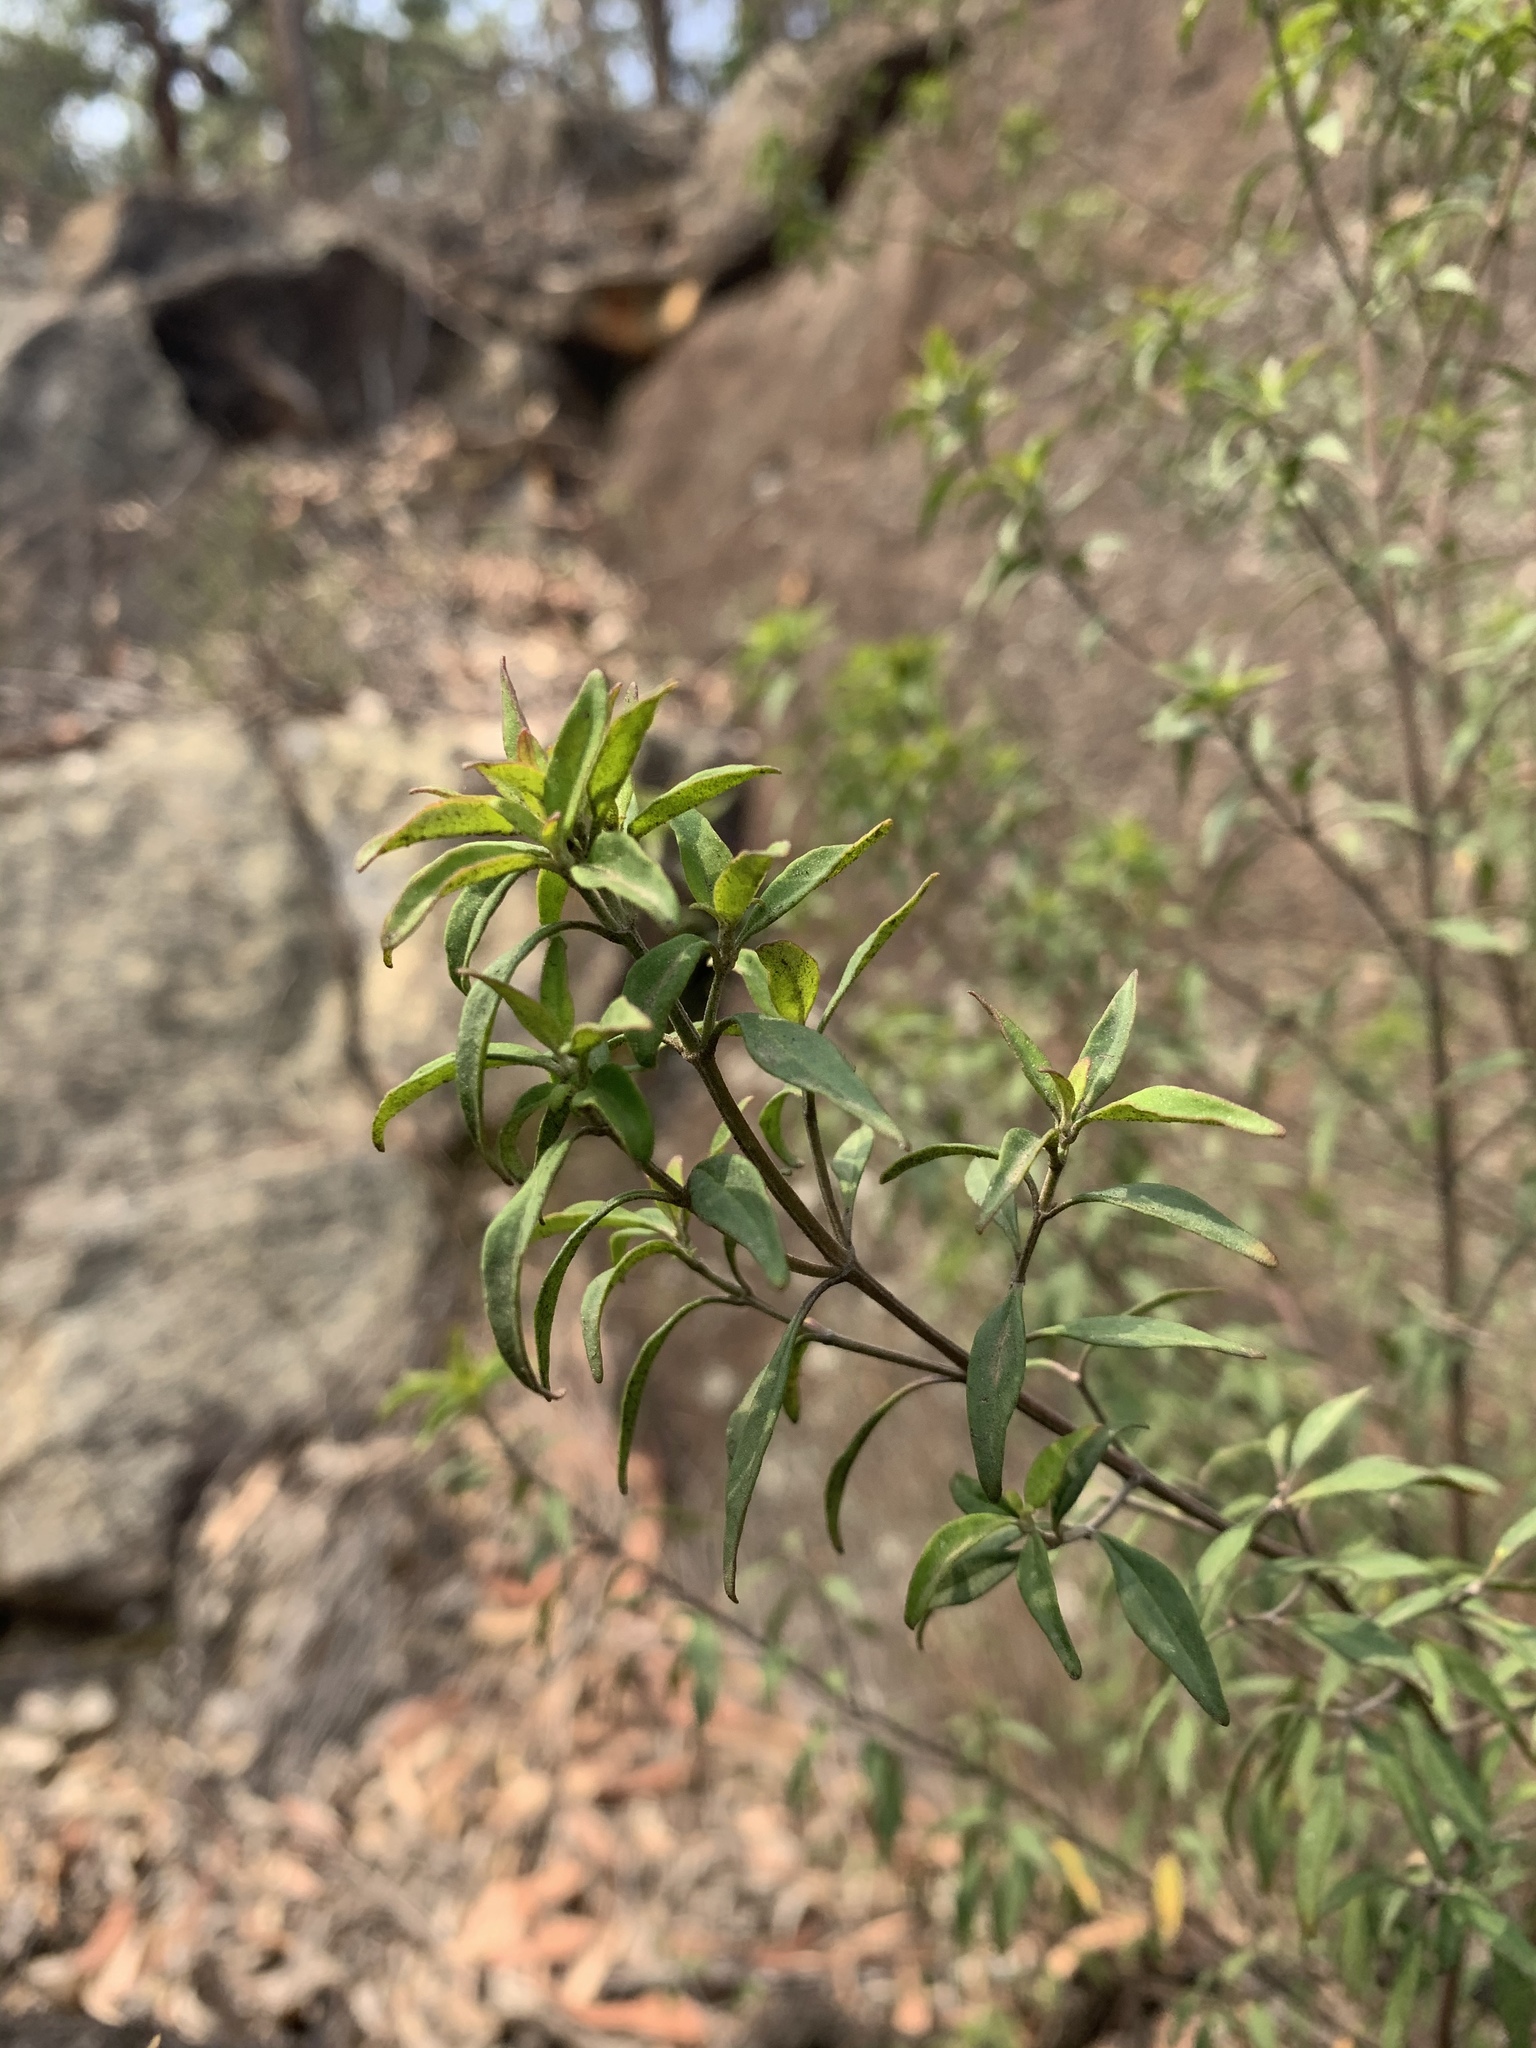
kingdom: Plantae
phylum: Tracheophyta
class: Magnoliopsida
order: Lamiales
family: Lamiaceae
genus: Prostanthera
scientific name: Prostanthera ovalifolia
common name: Purple mintbush
